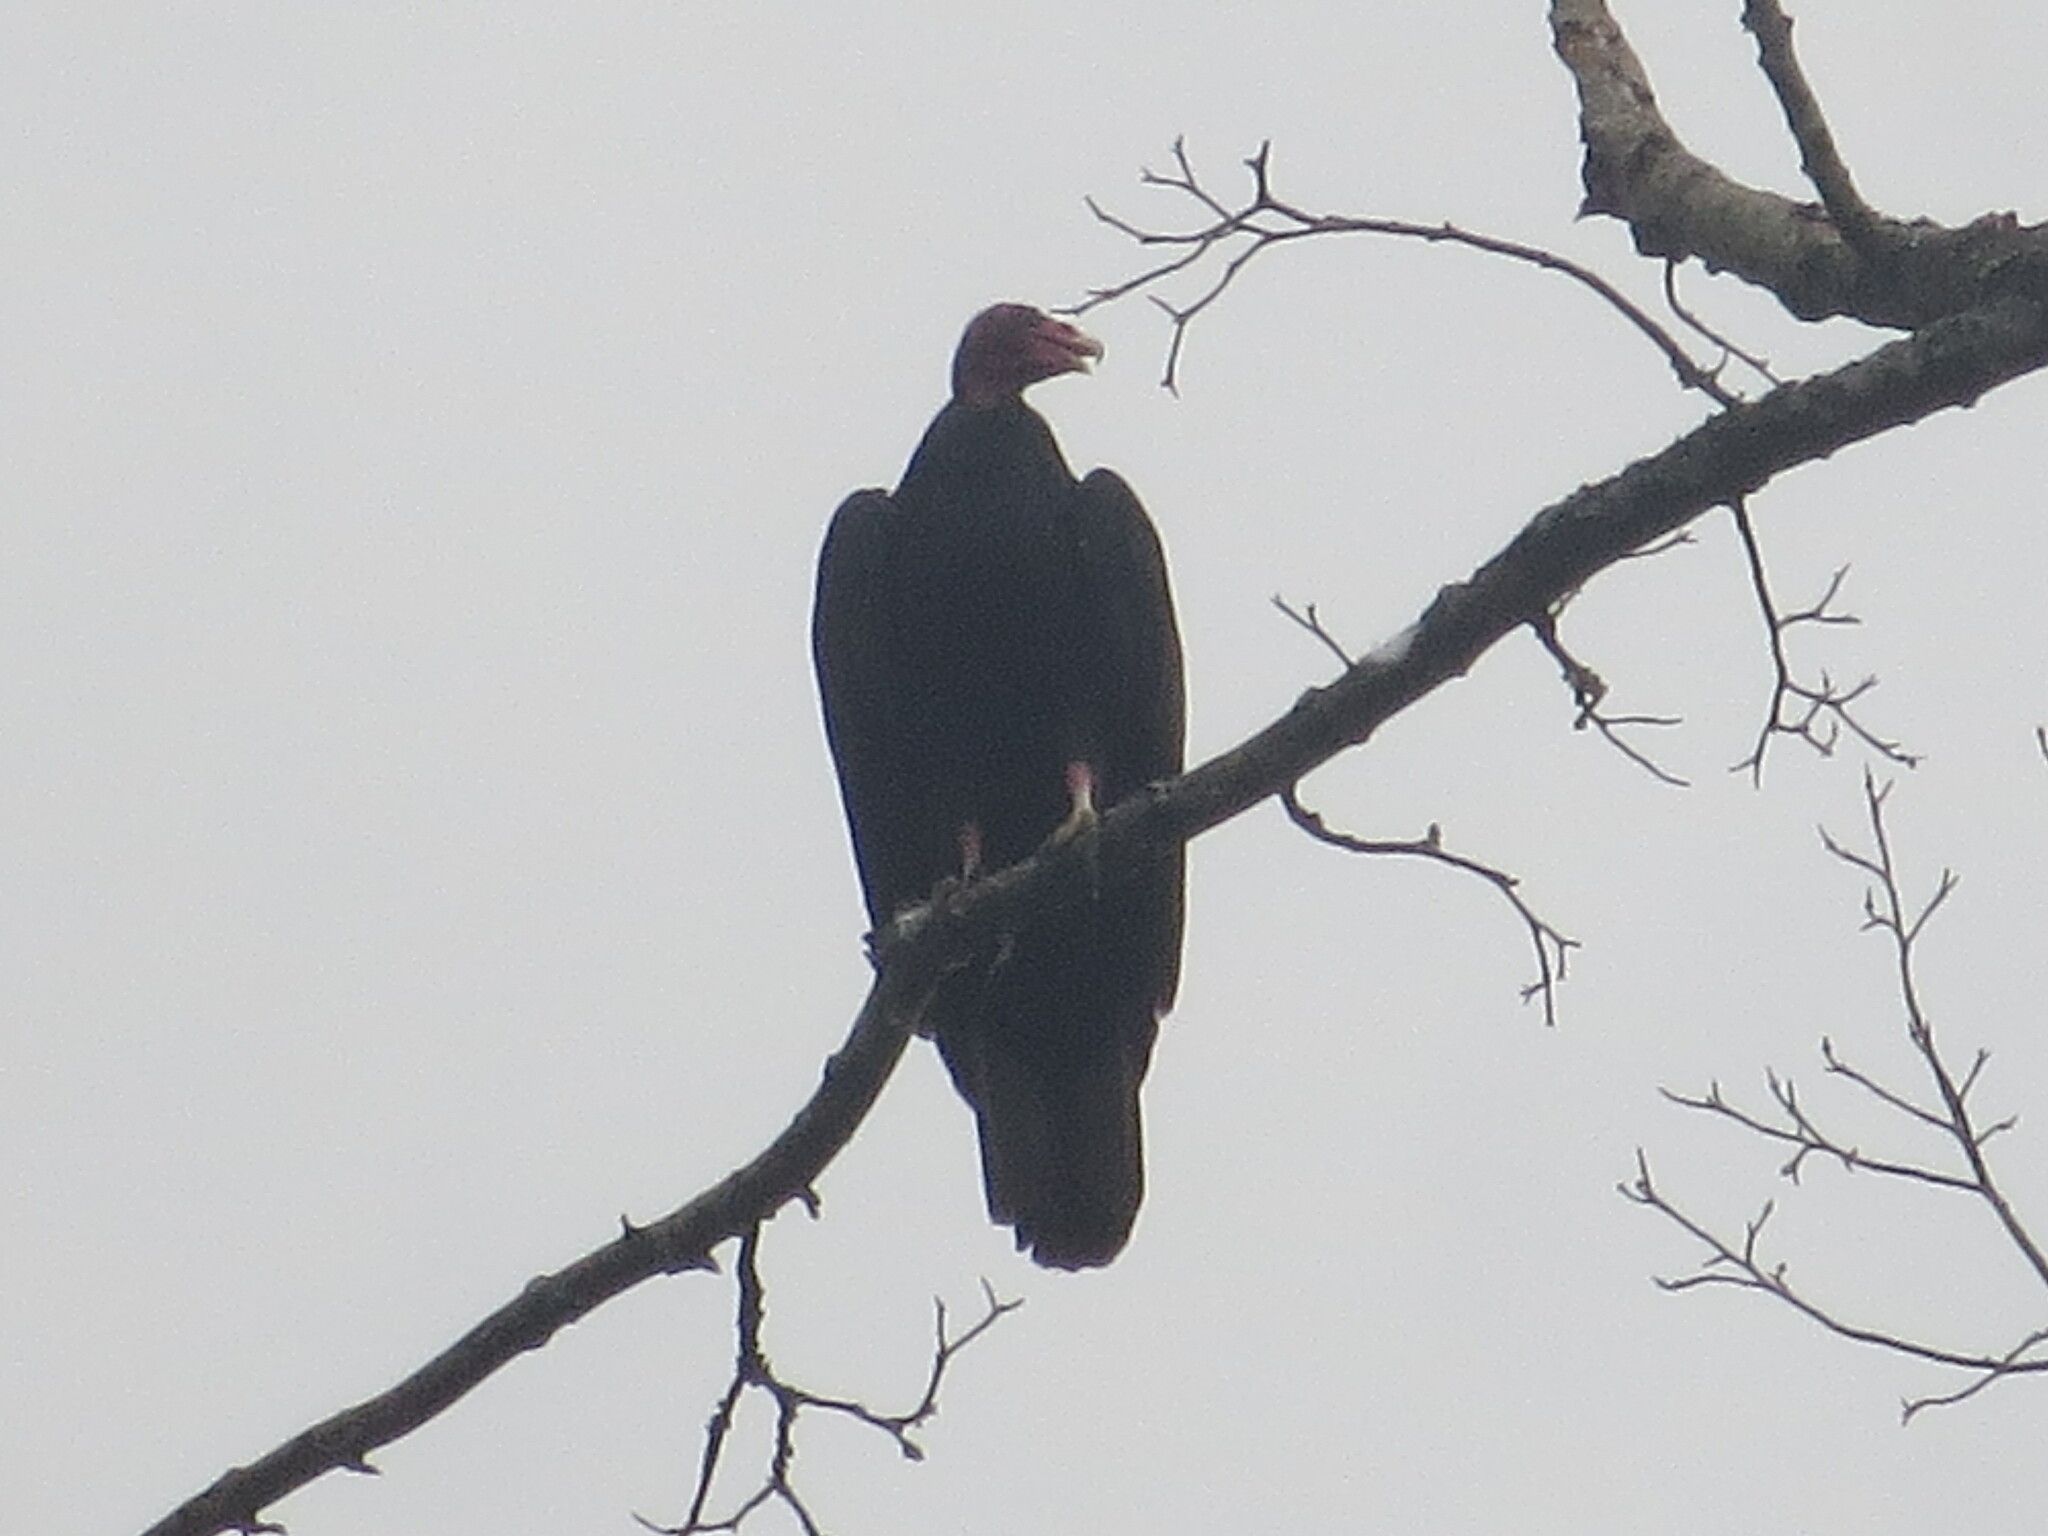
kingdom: Animalia
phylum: Chordata
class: Aves
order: Accipitriformes
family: Cathartidae
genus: Cathartes
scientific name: Cathartes aura
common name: Turkey vulture
